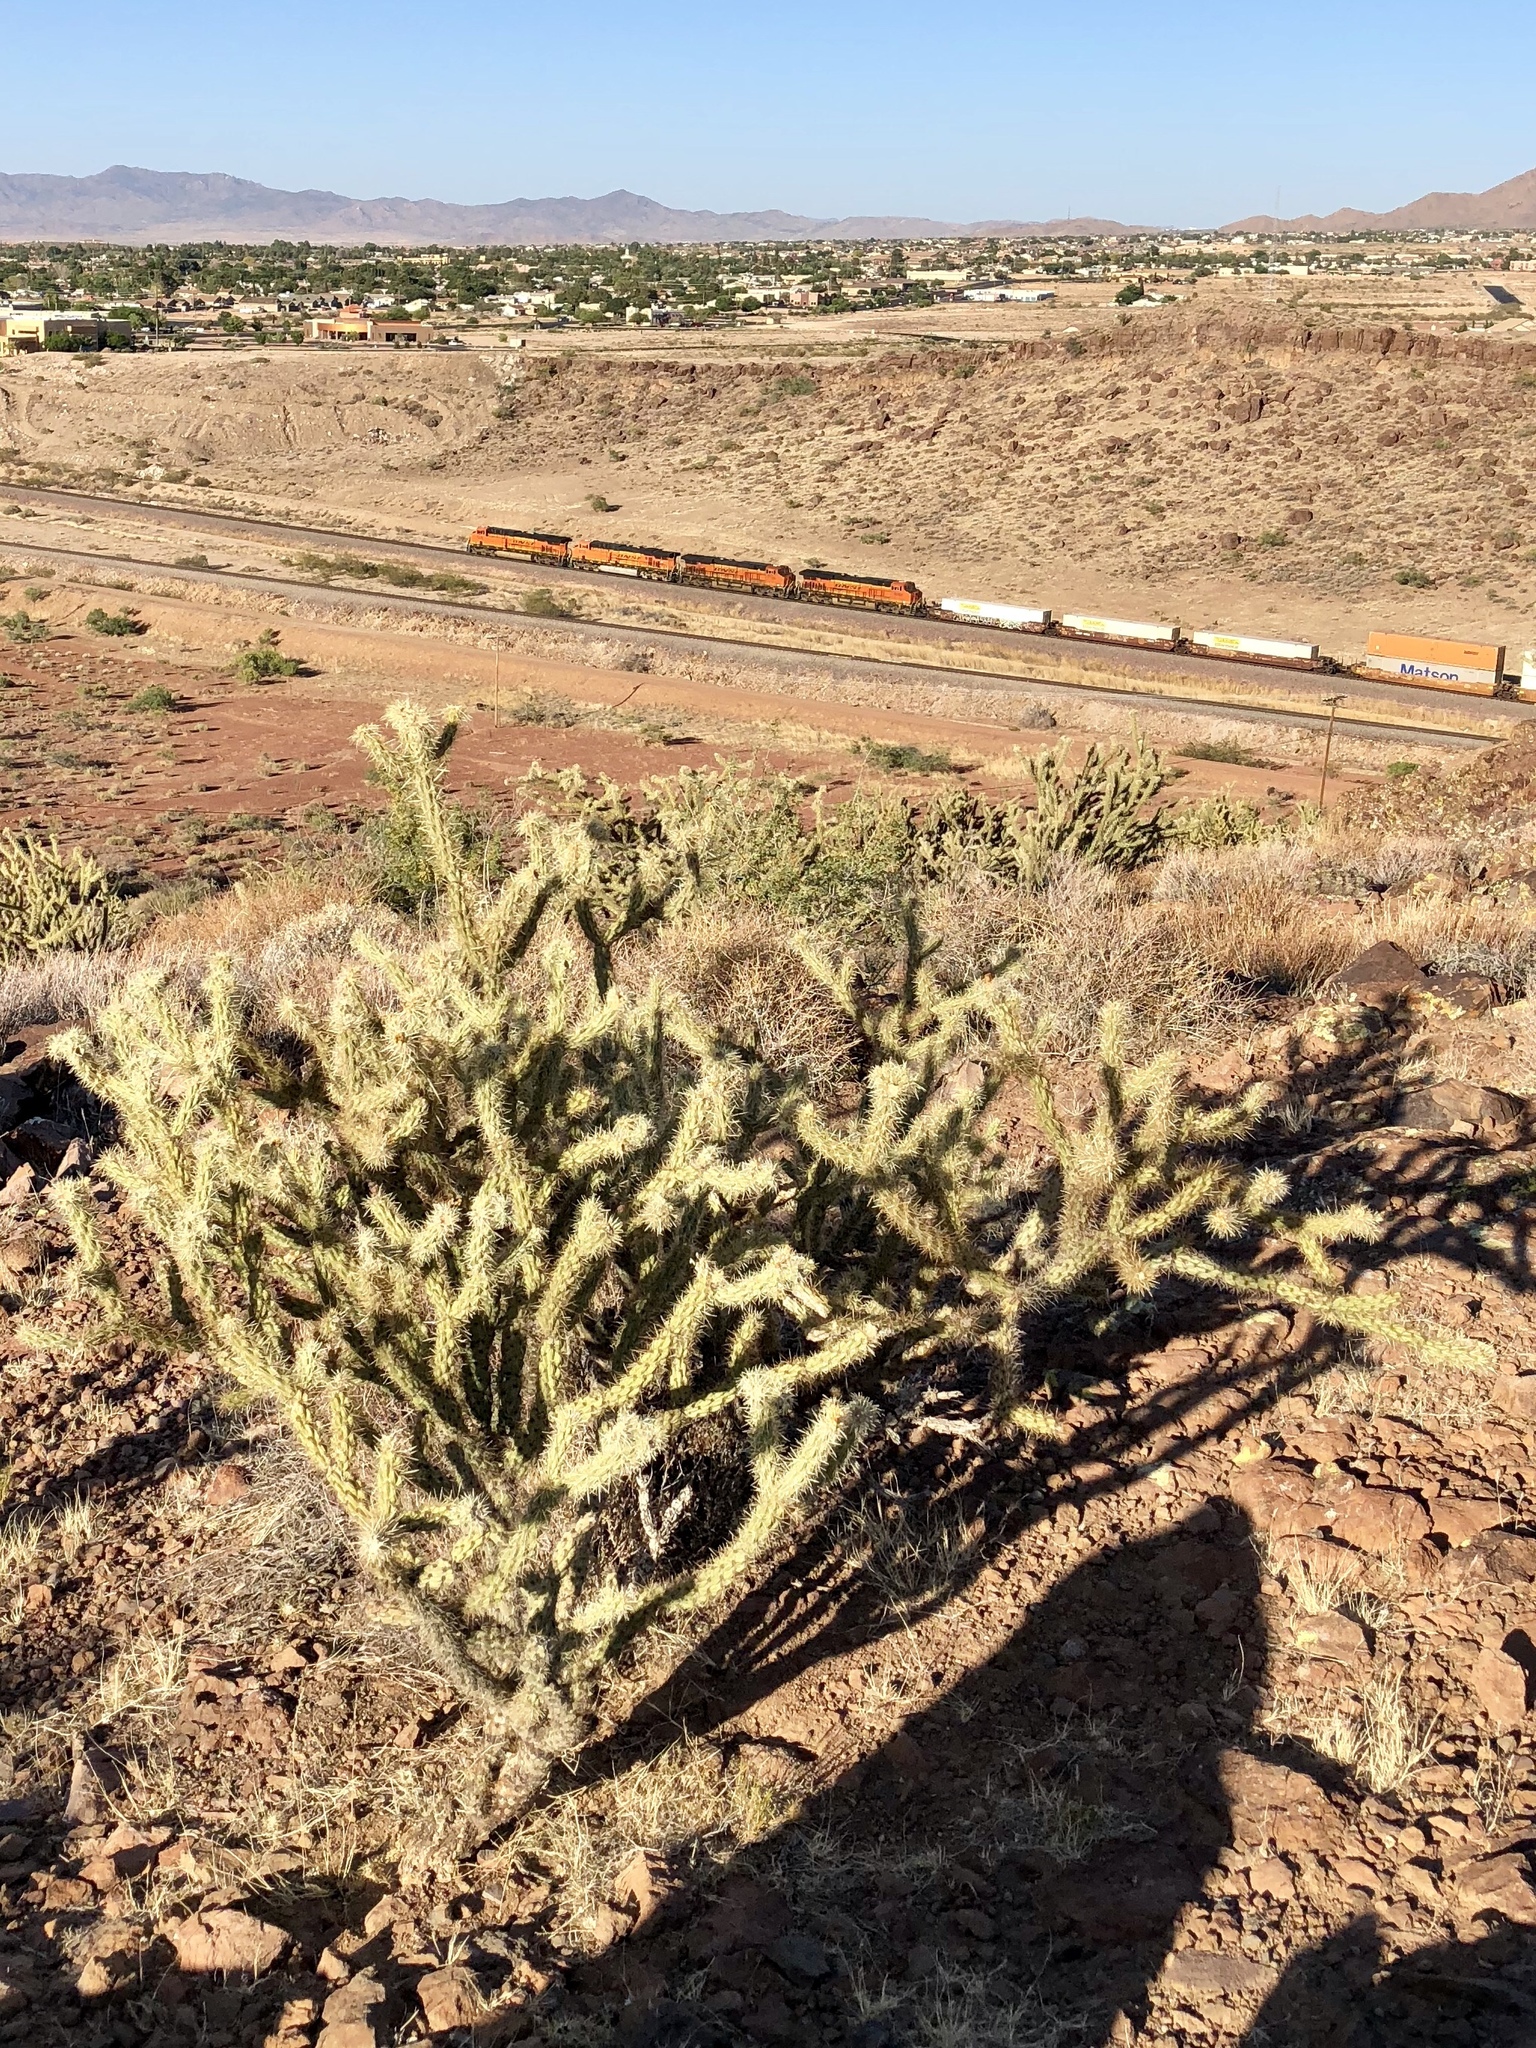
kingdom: Plantae
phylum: Tracheophyta
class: Magnoliopsida
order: Caryophyllales
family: Cactaceae
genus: Cylindropuntia
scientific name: Cylindropuntia acanthocarpa
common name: Buckhorn cholla
